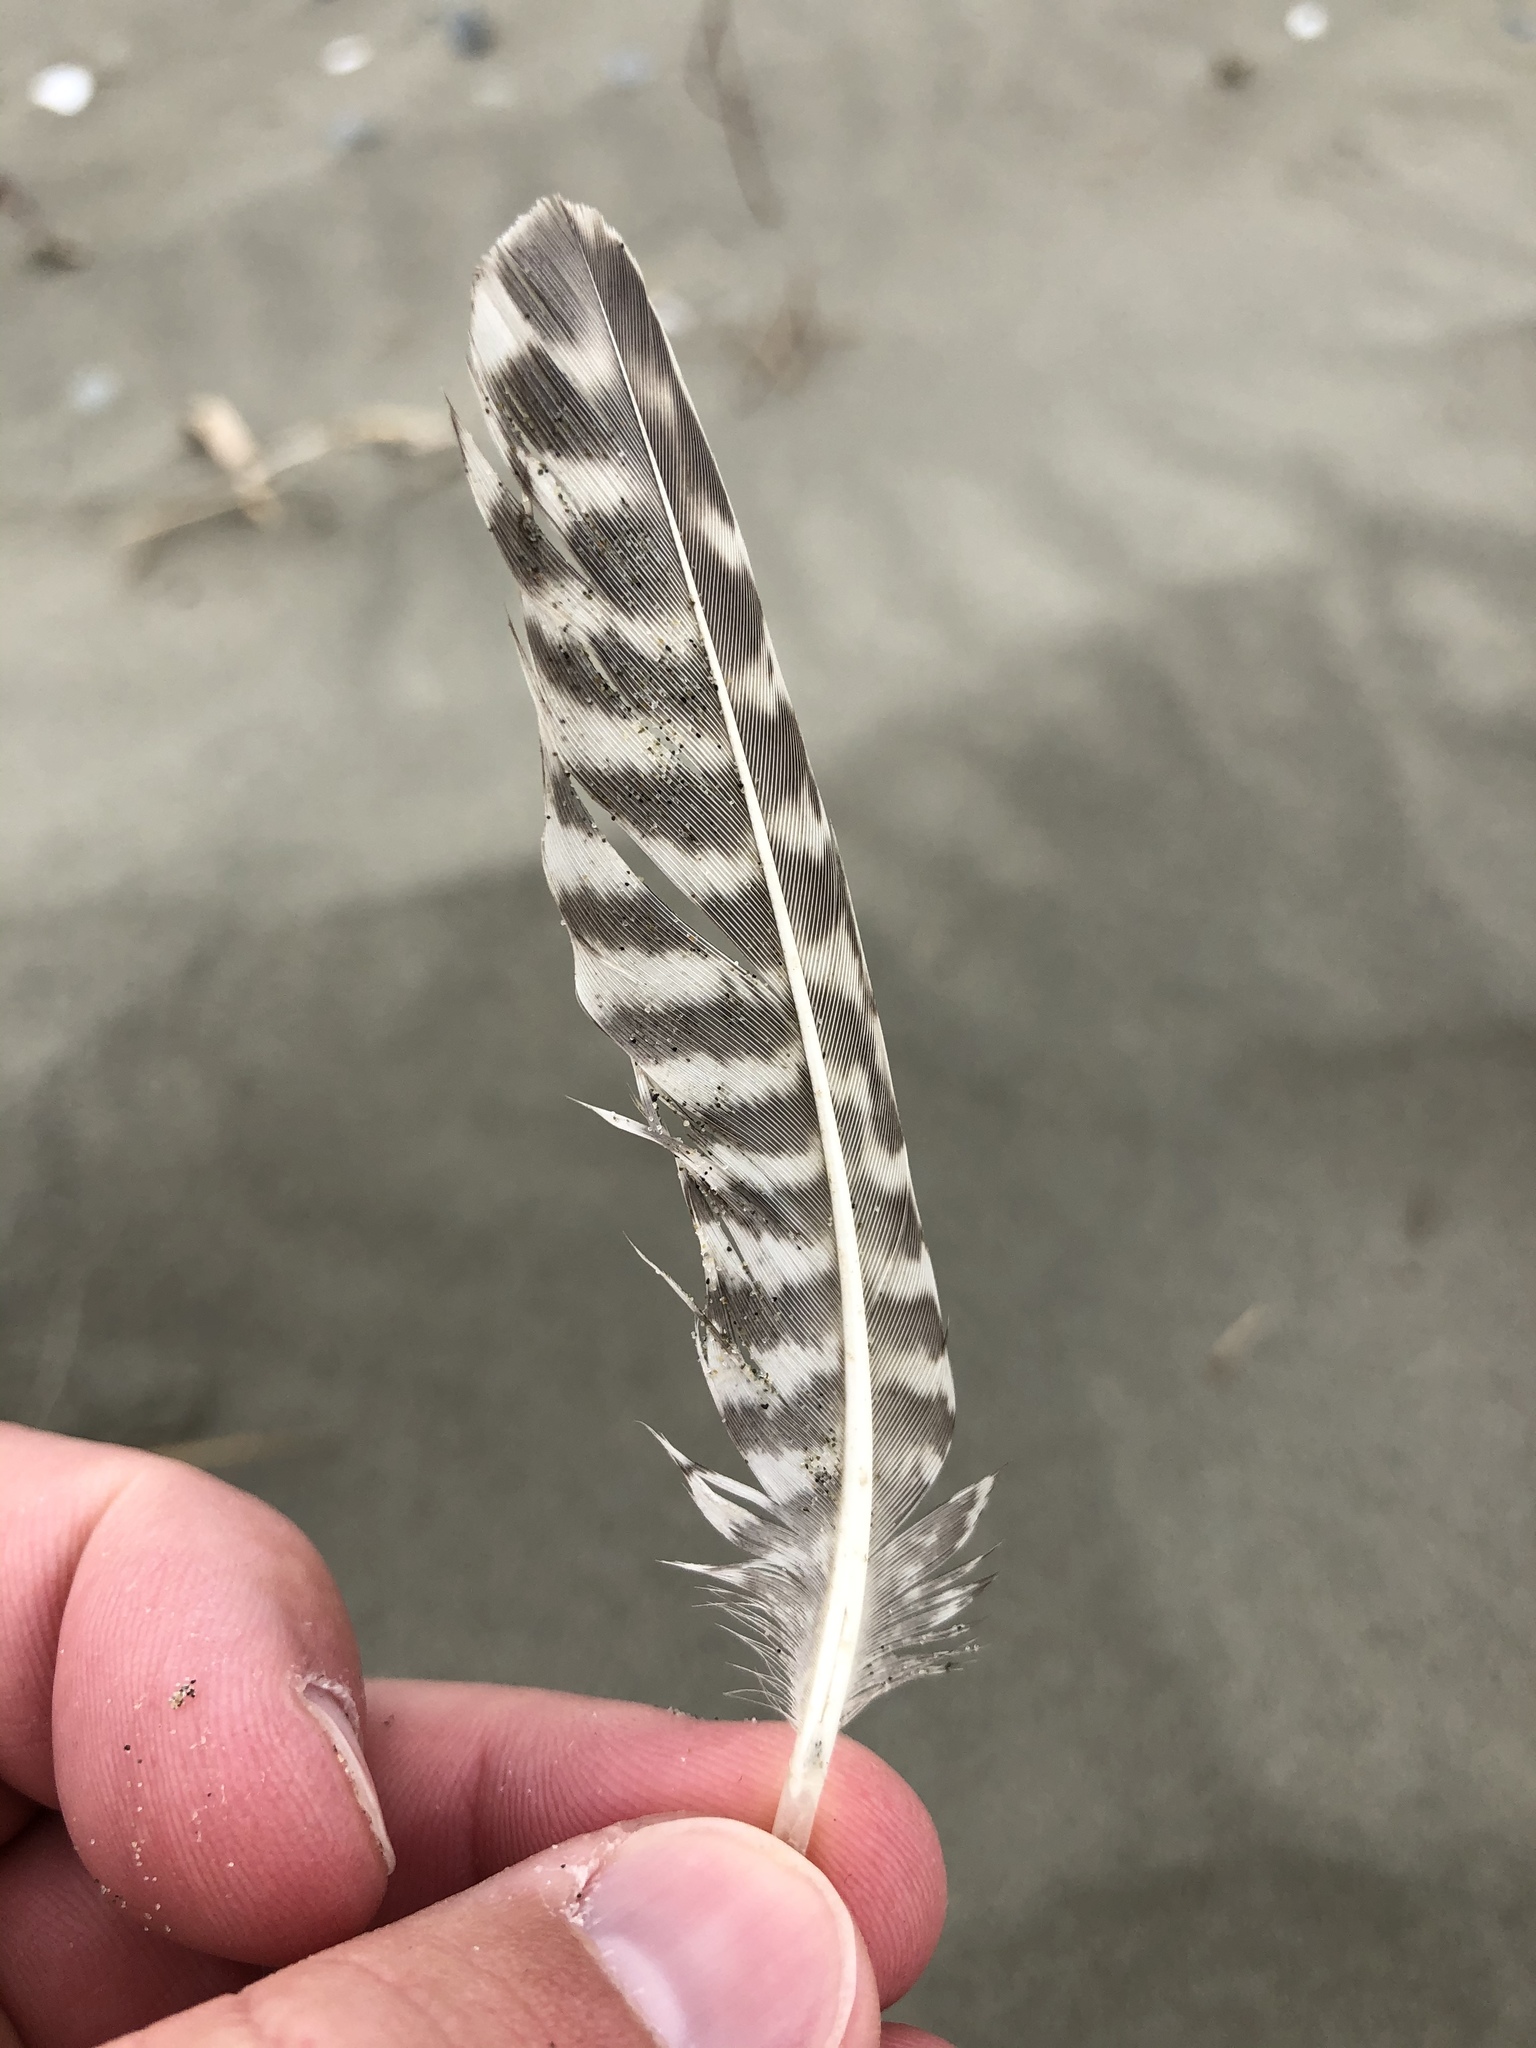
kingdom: Animalia
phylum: Chordata
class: Aves
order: Charadriiformes
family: Scolopacidae
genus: Limosa
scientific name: Limosa lapponica
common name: Bar-tailed godwit
